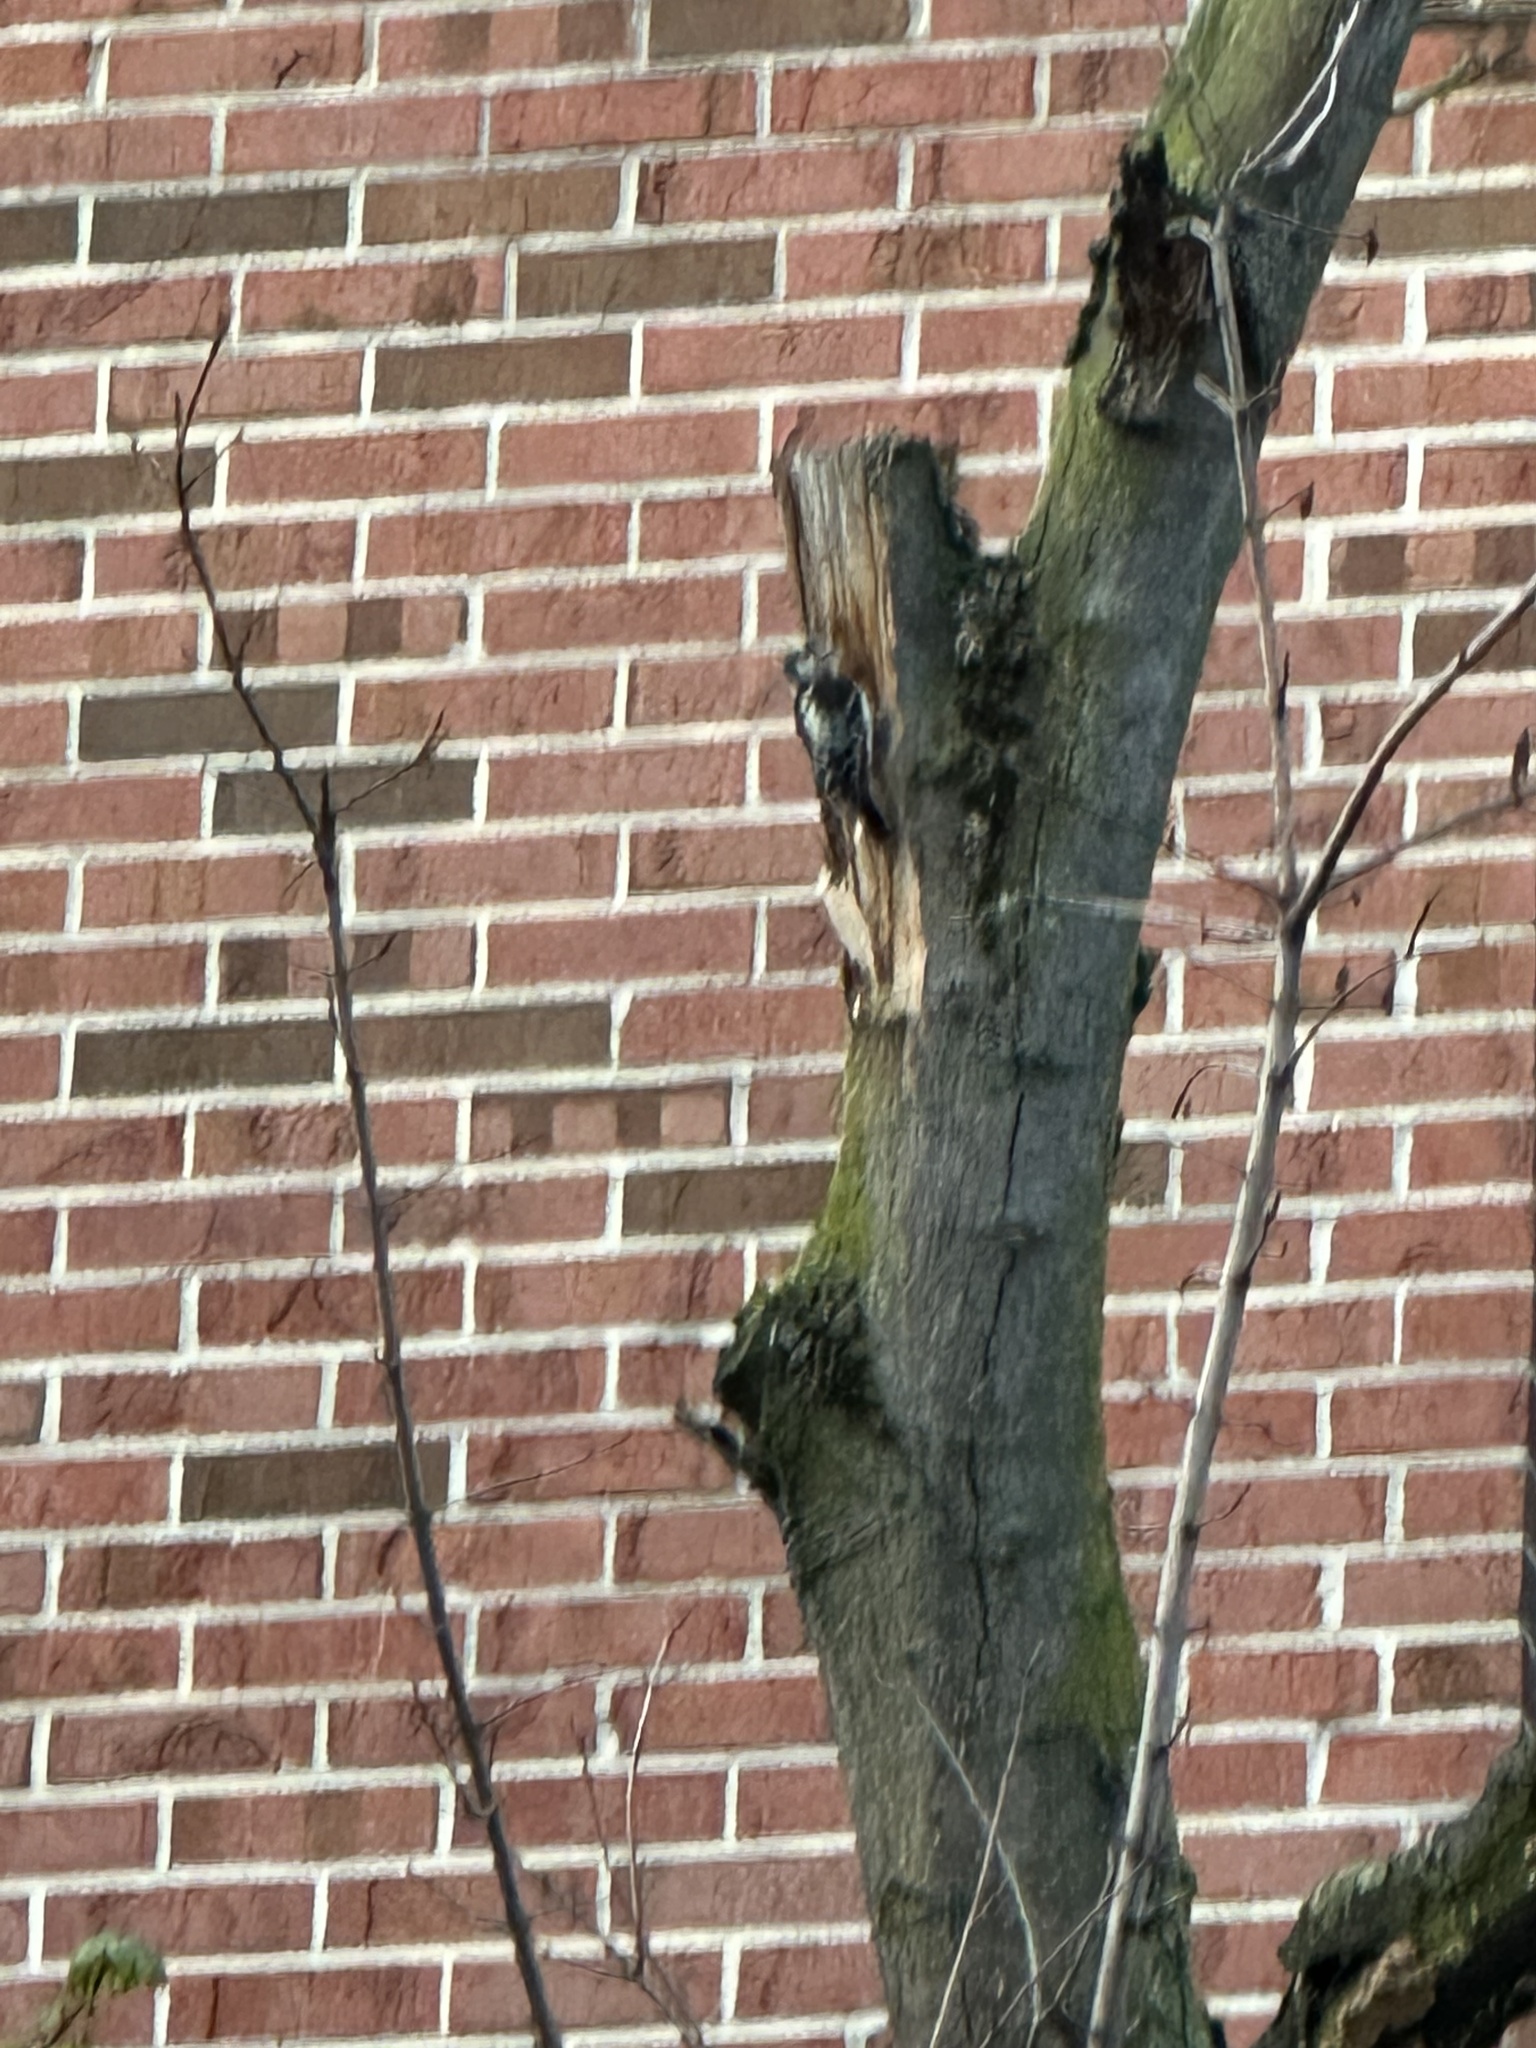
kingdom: Animalia
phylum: Chordata
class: Aves
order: Piciformes
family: Picidae
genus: Dryobates
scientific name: Dryobates pubescens
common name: Downy woodpecker
